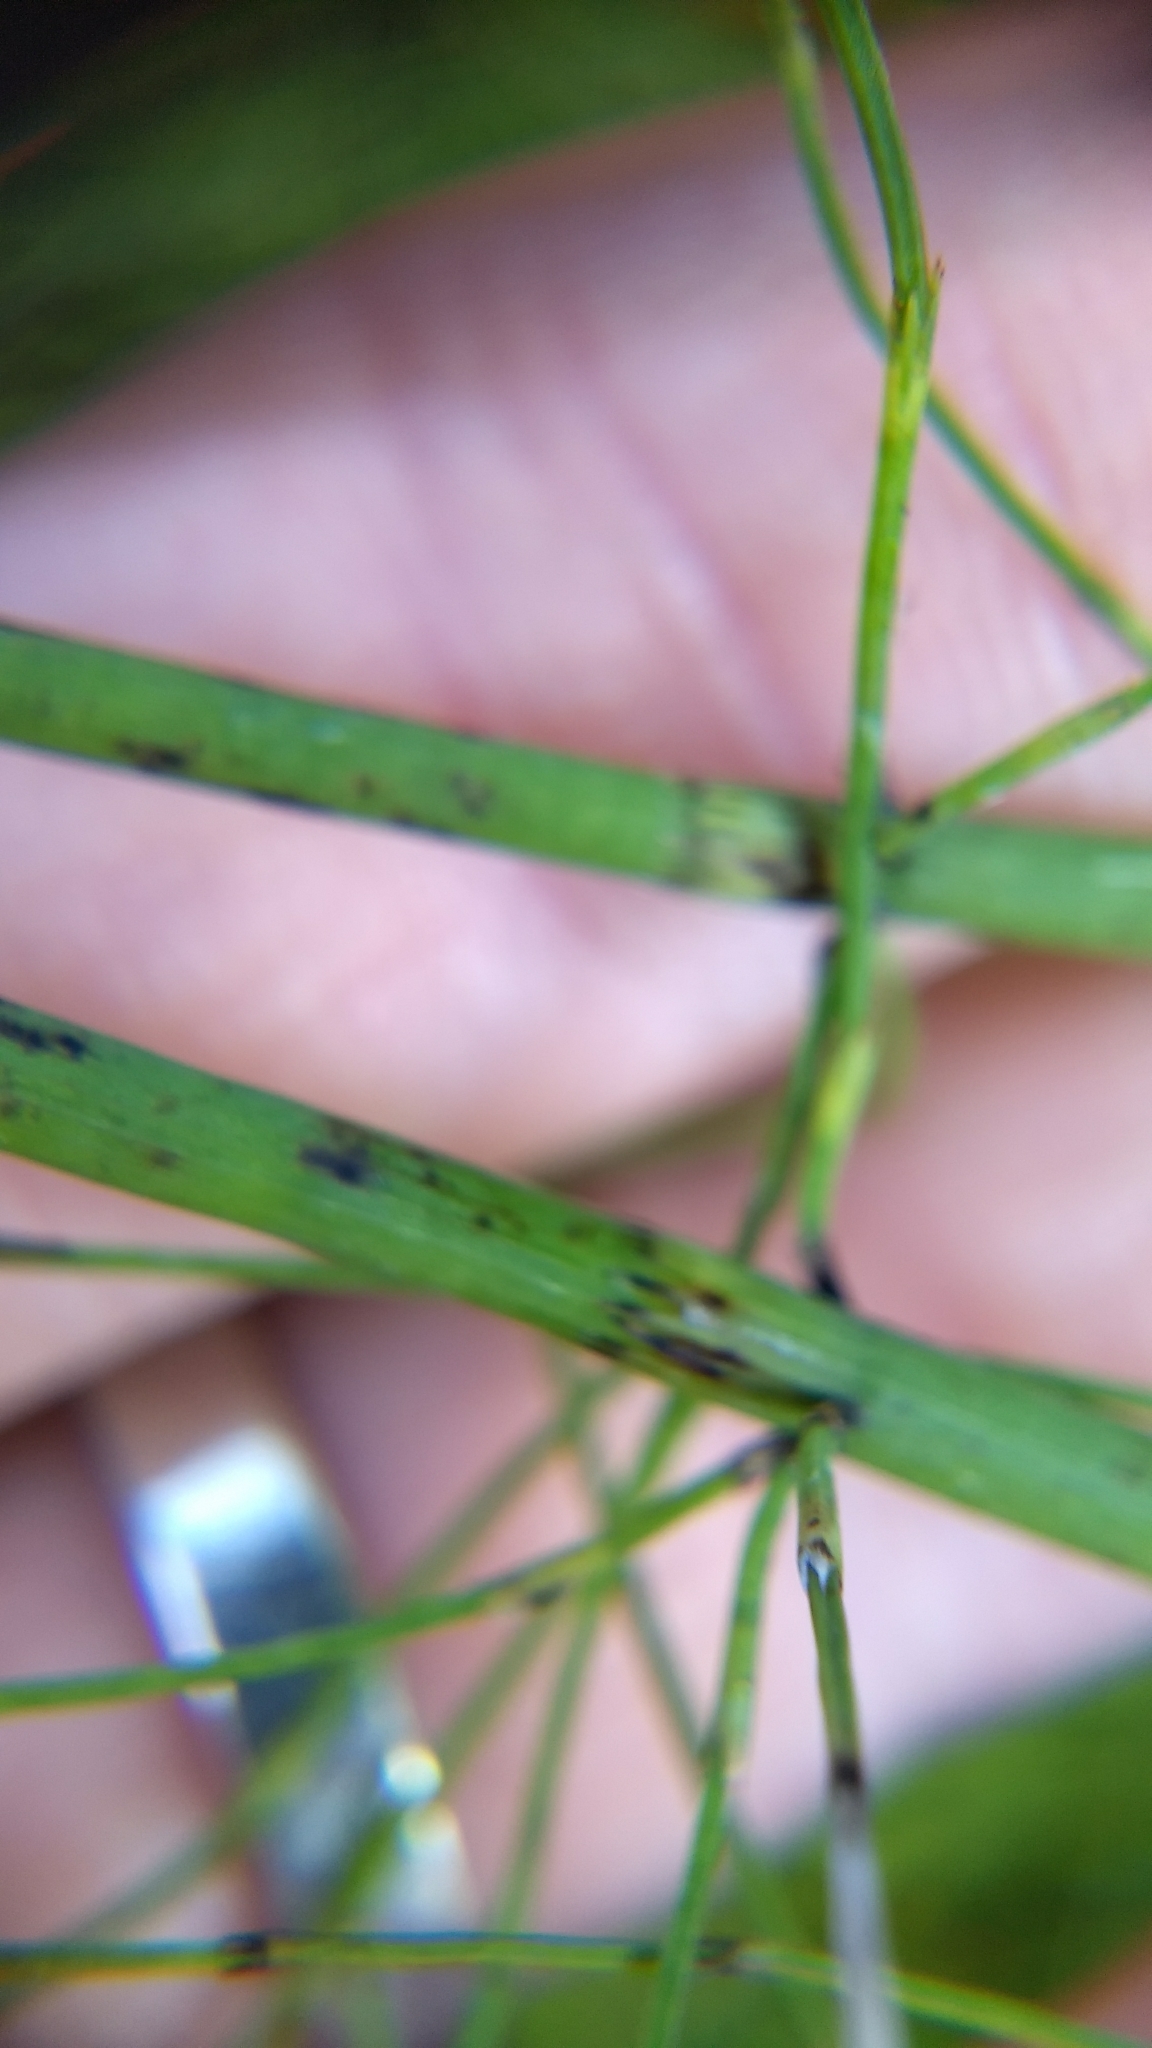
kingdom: Plantae
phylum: Tracheophyta
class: Polypodiopsida
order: Equisetales
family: Equisetaceae
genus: Equisetum
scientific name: Equisetum fluviatile
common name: Water horsetail
